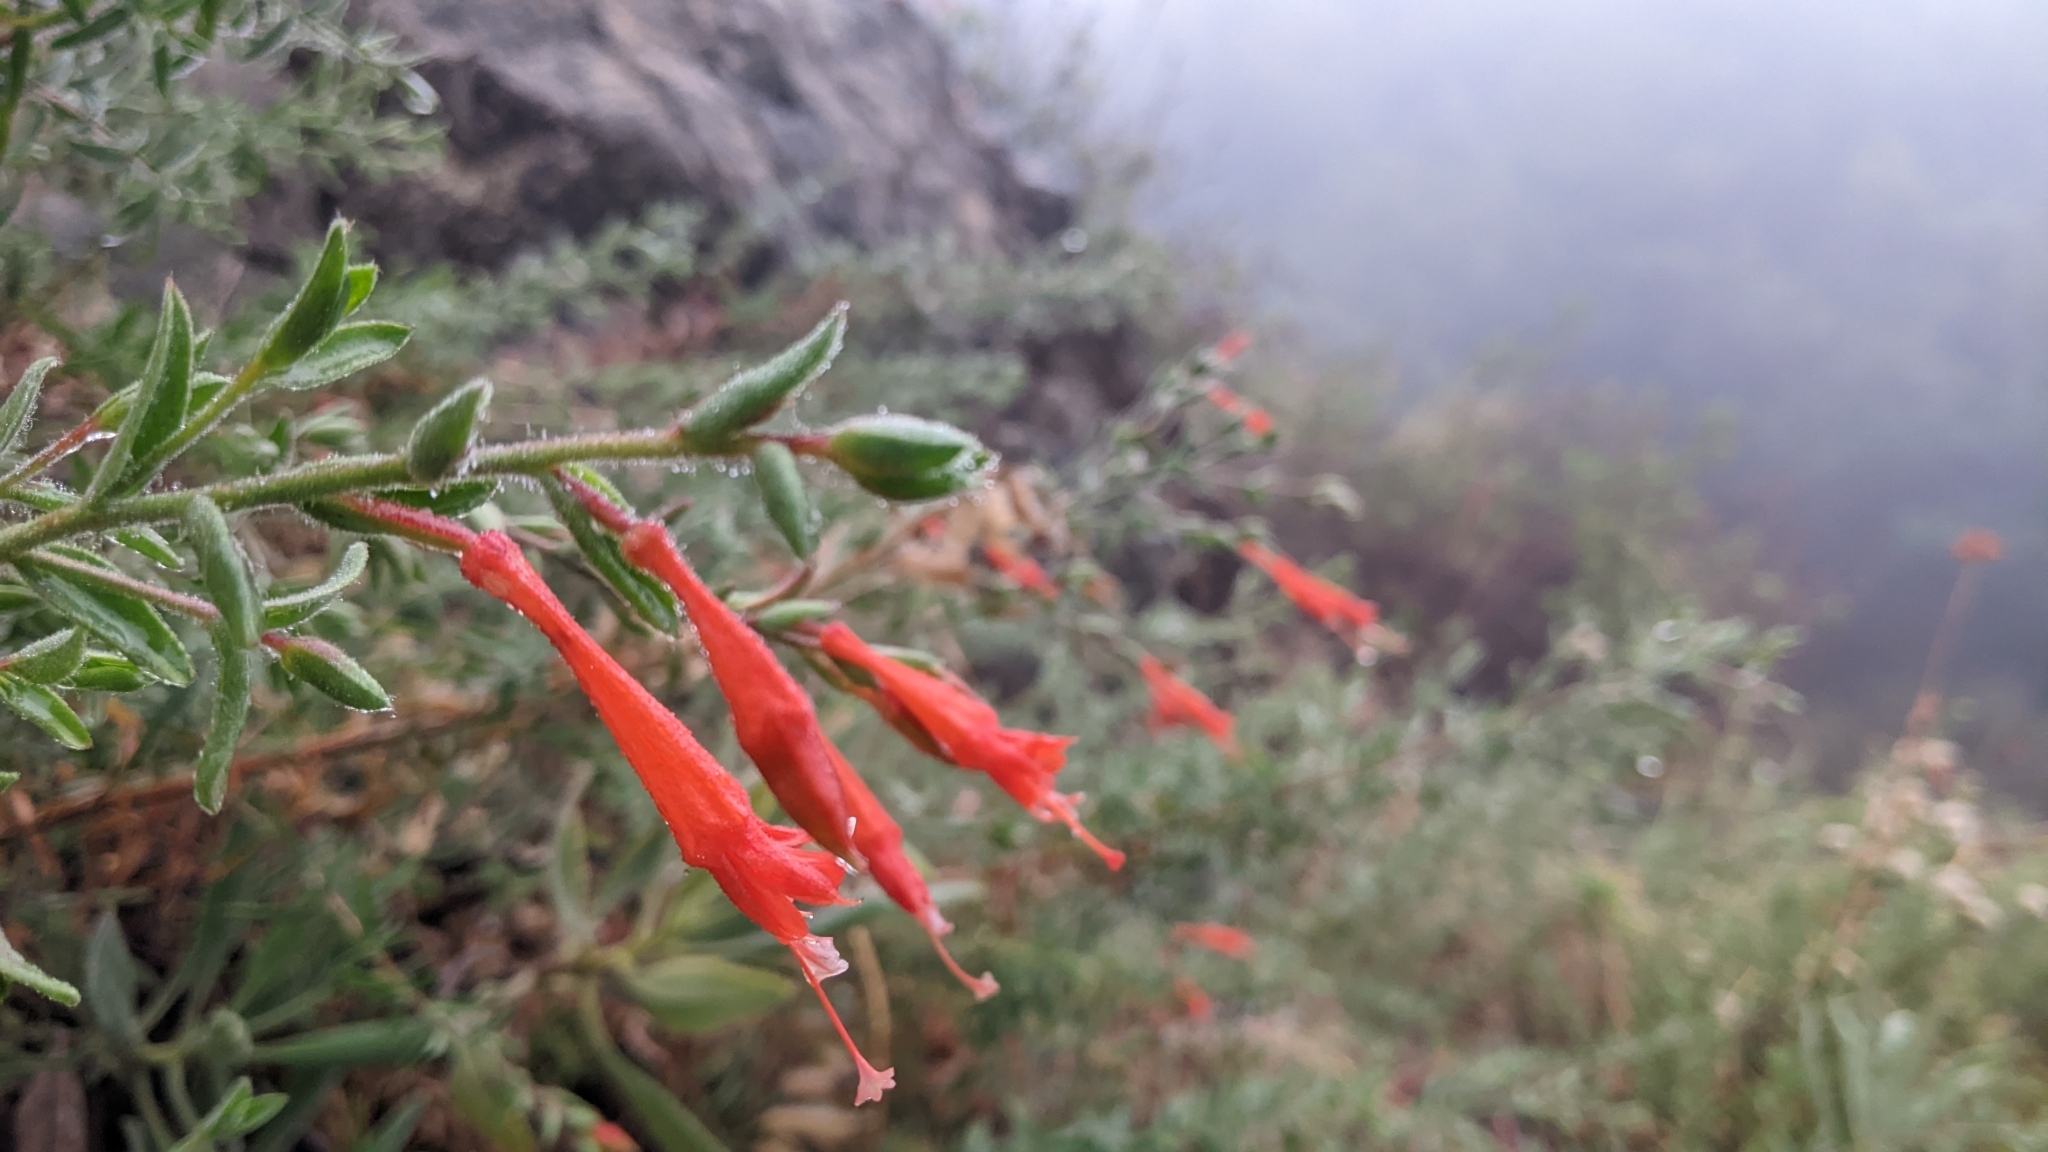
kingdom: Plantae
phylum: Tracheophyta
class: Magnoliopsida
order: Myrtales
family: Onagraceae
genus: Epilobium
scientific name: Epilobium canum
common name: California-fuchsia
